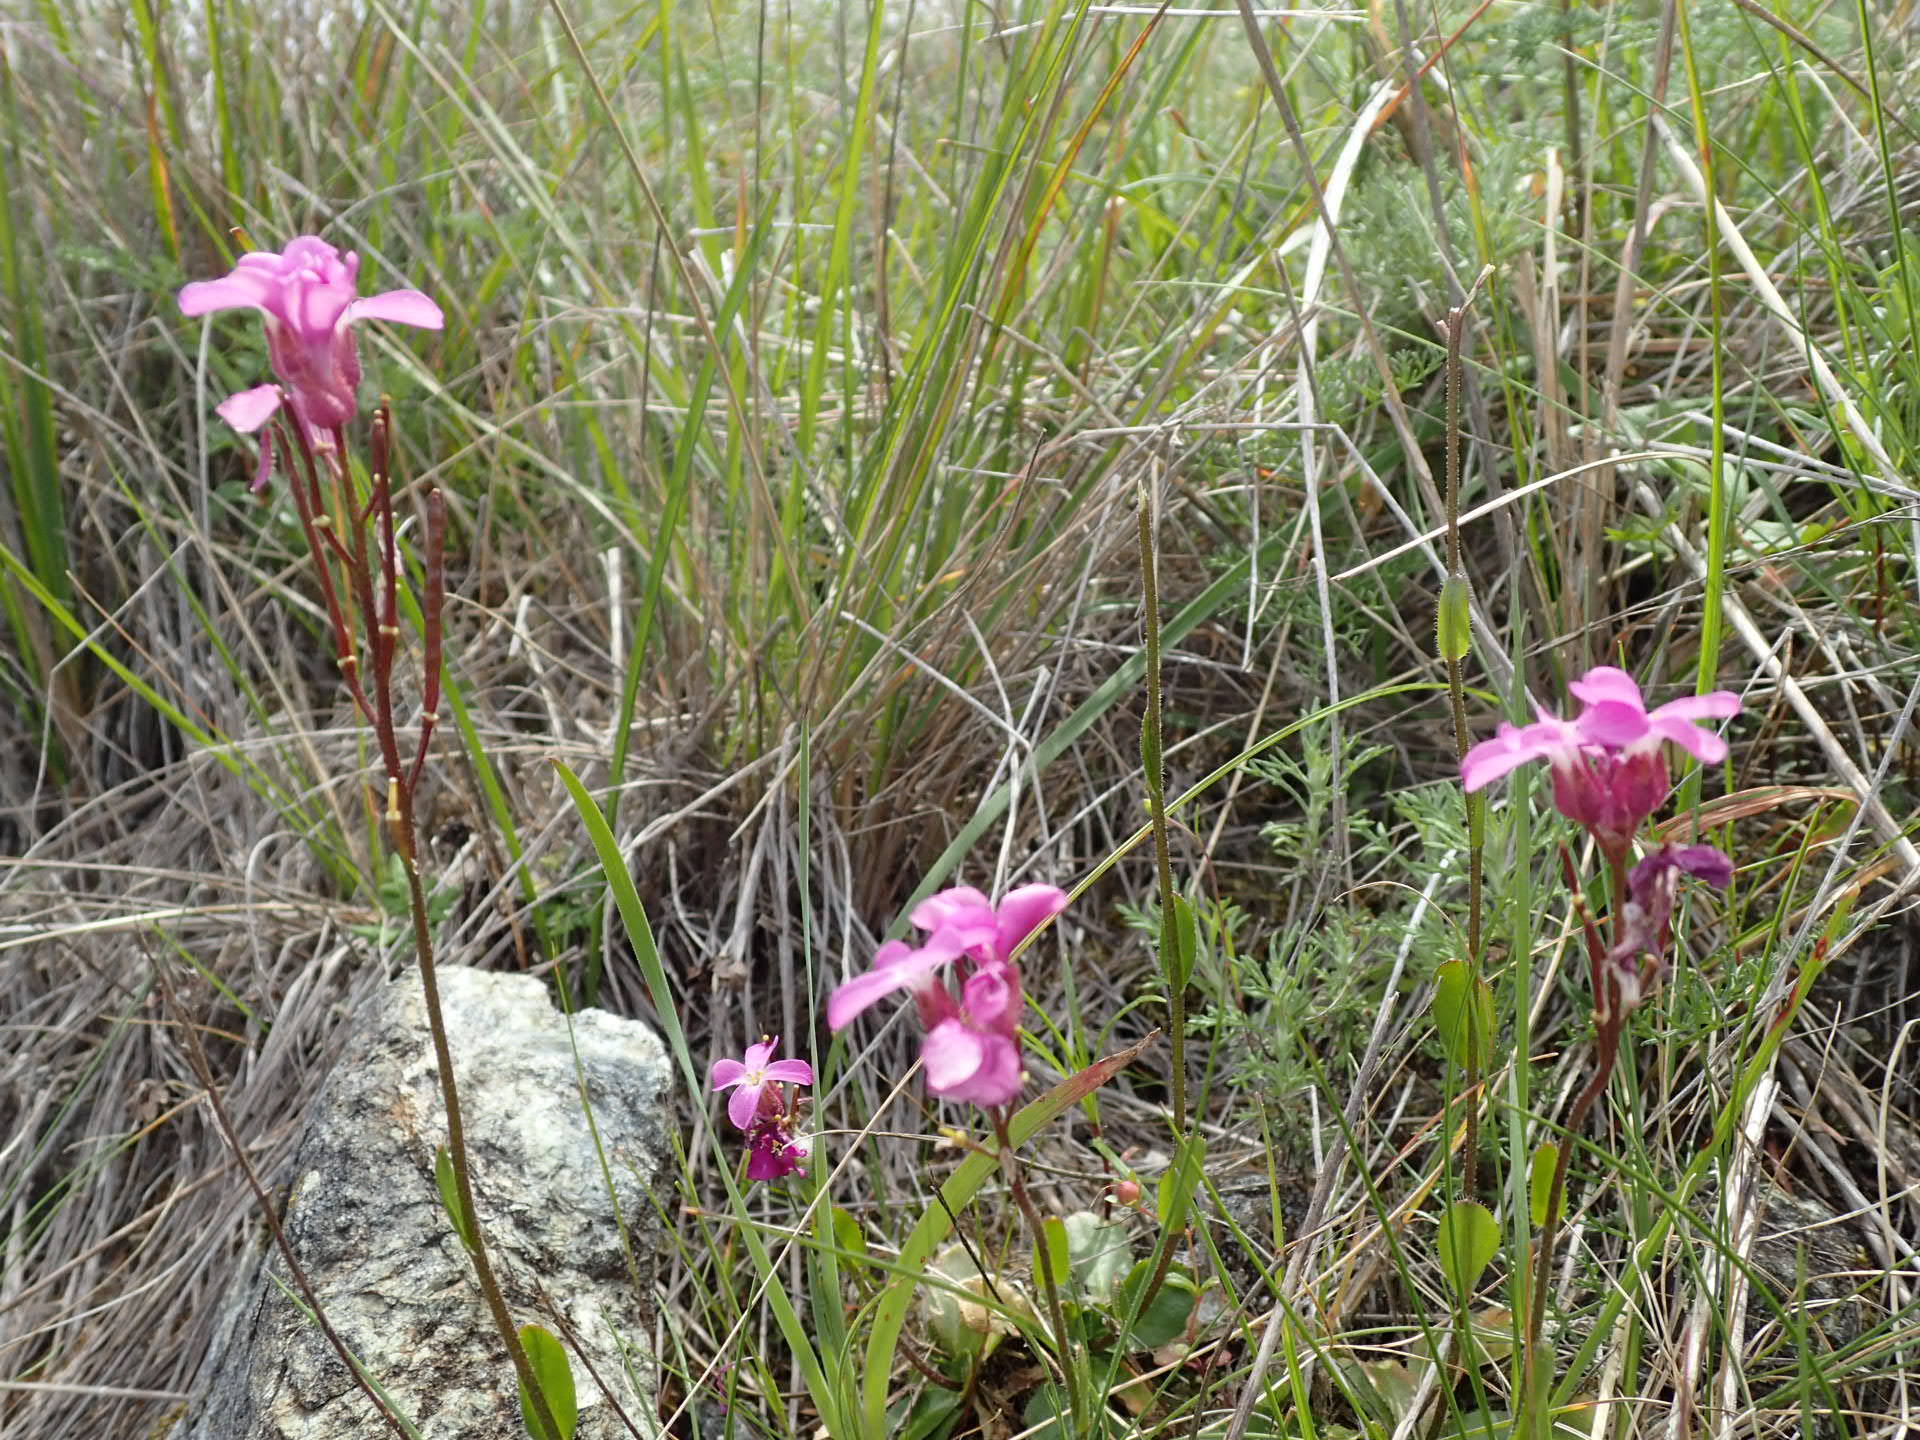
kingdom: Plantae
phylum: Tracheophyta
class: Magnoliopsida
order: Brassicales
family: Brassicaceae
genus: Arabis
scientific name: Arabis blepharophylla
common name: Rose rockcress
